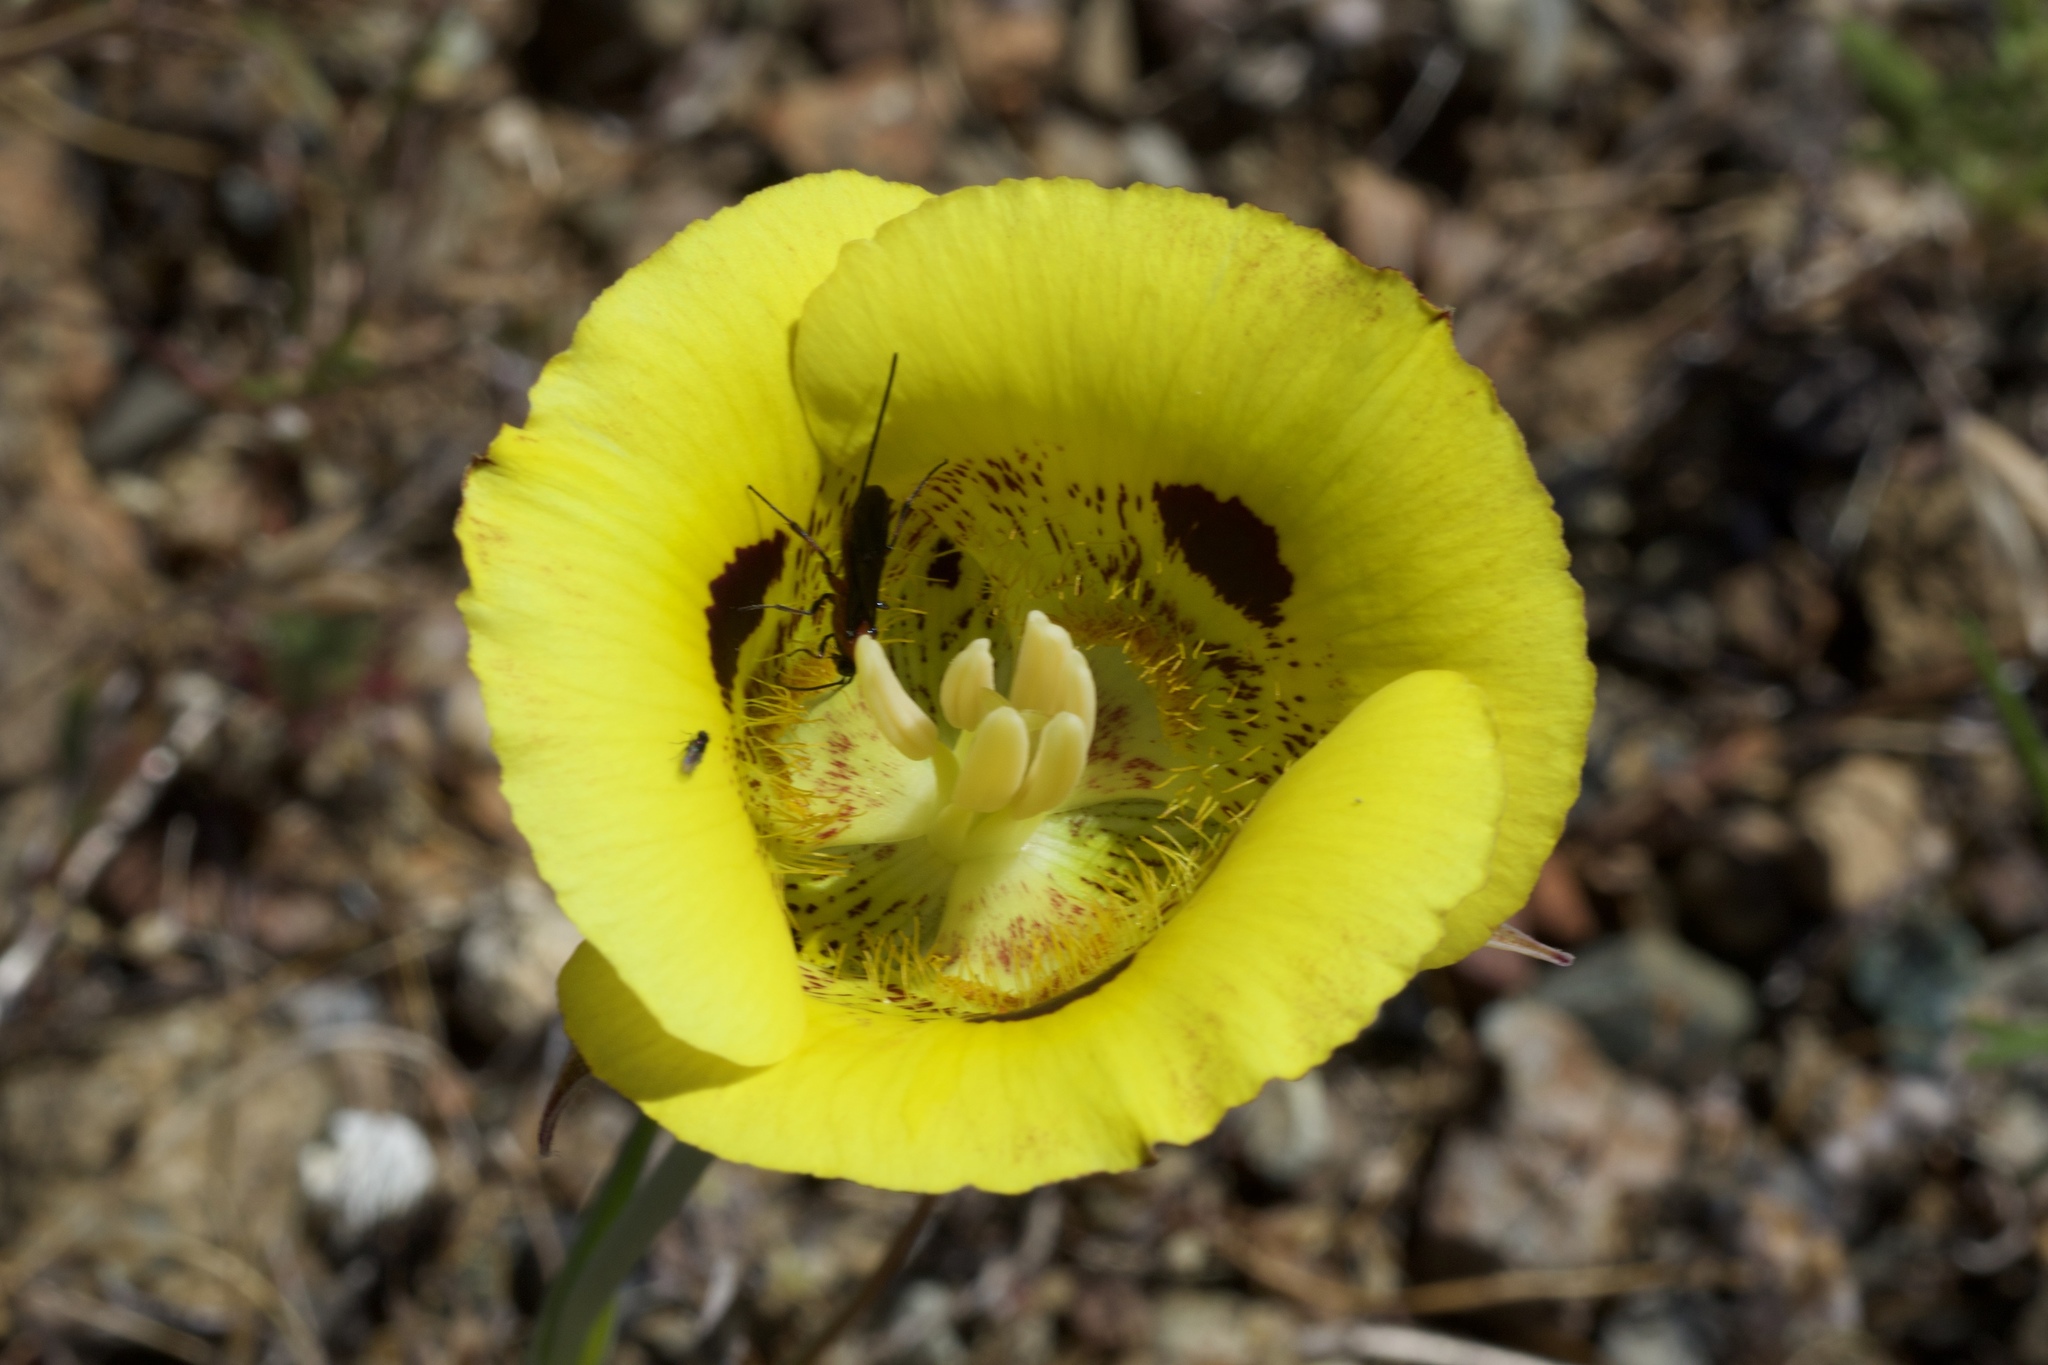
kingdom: Plantae
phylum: Tracheophyta
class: Liliopsida
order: Liliales
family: Liliaceae
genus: Calochortus
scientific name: Calochortus luteus
